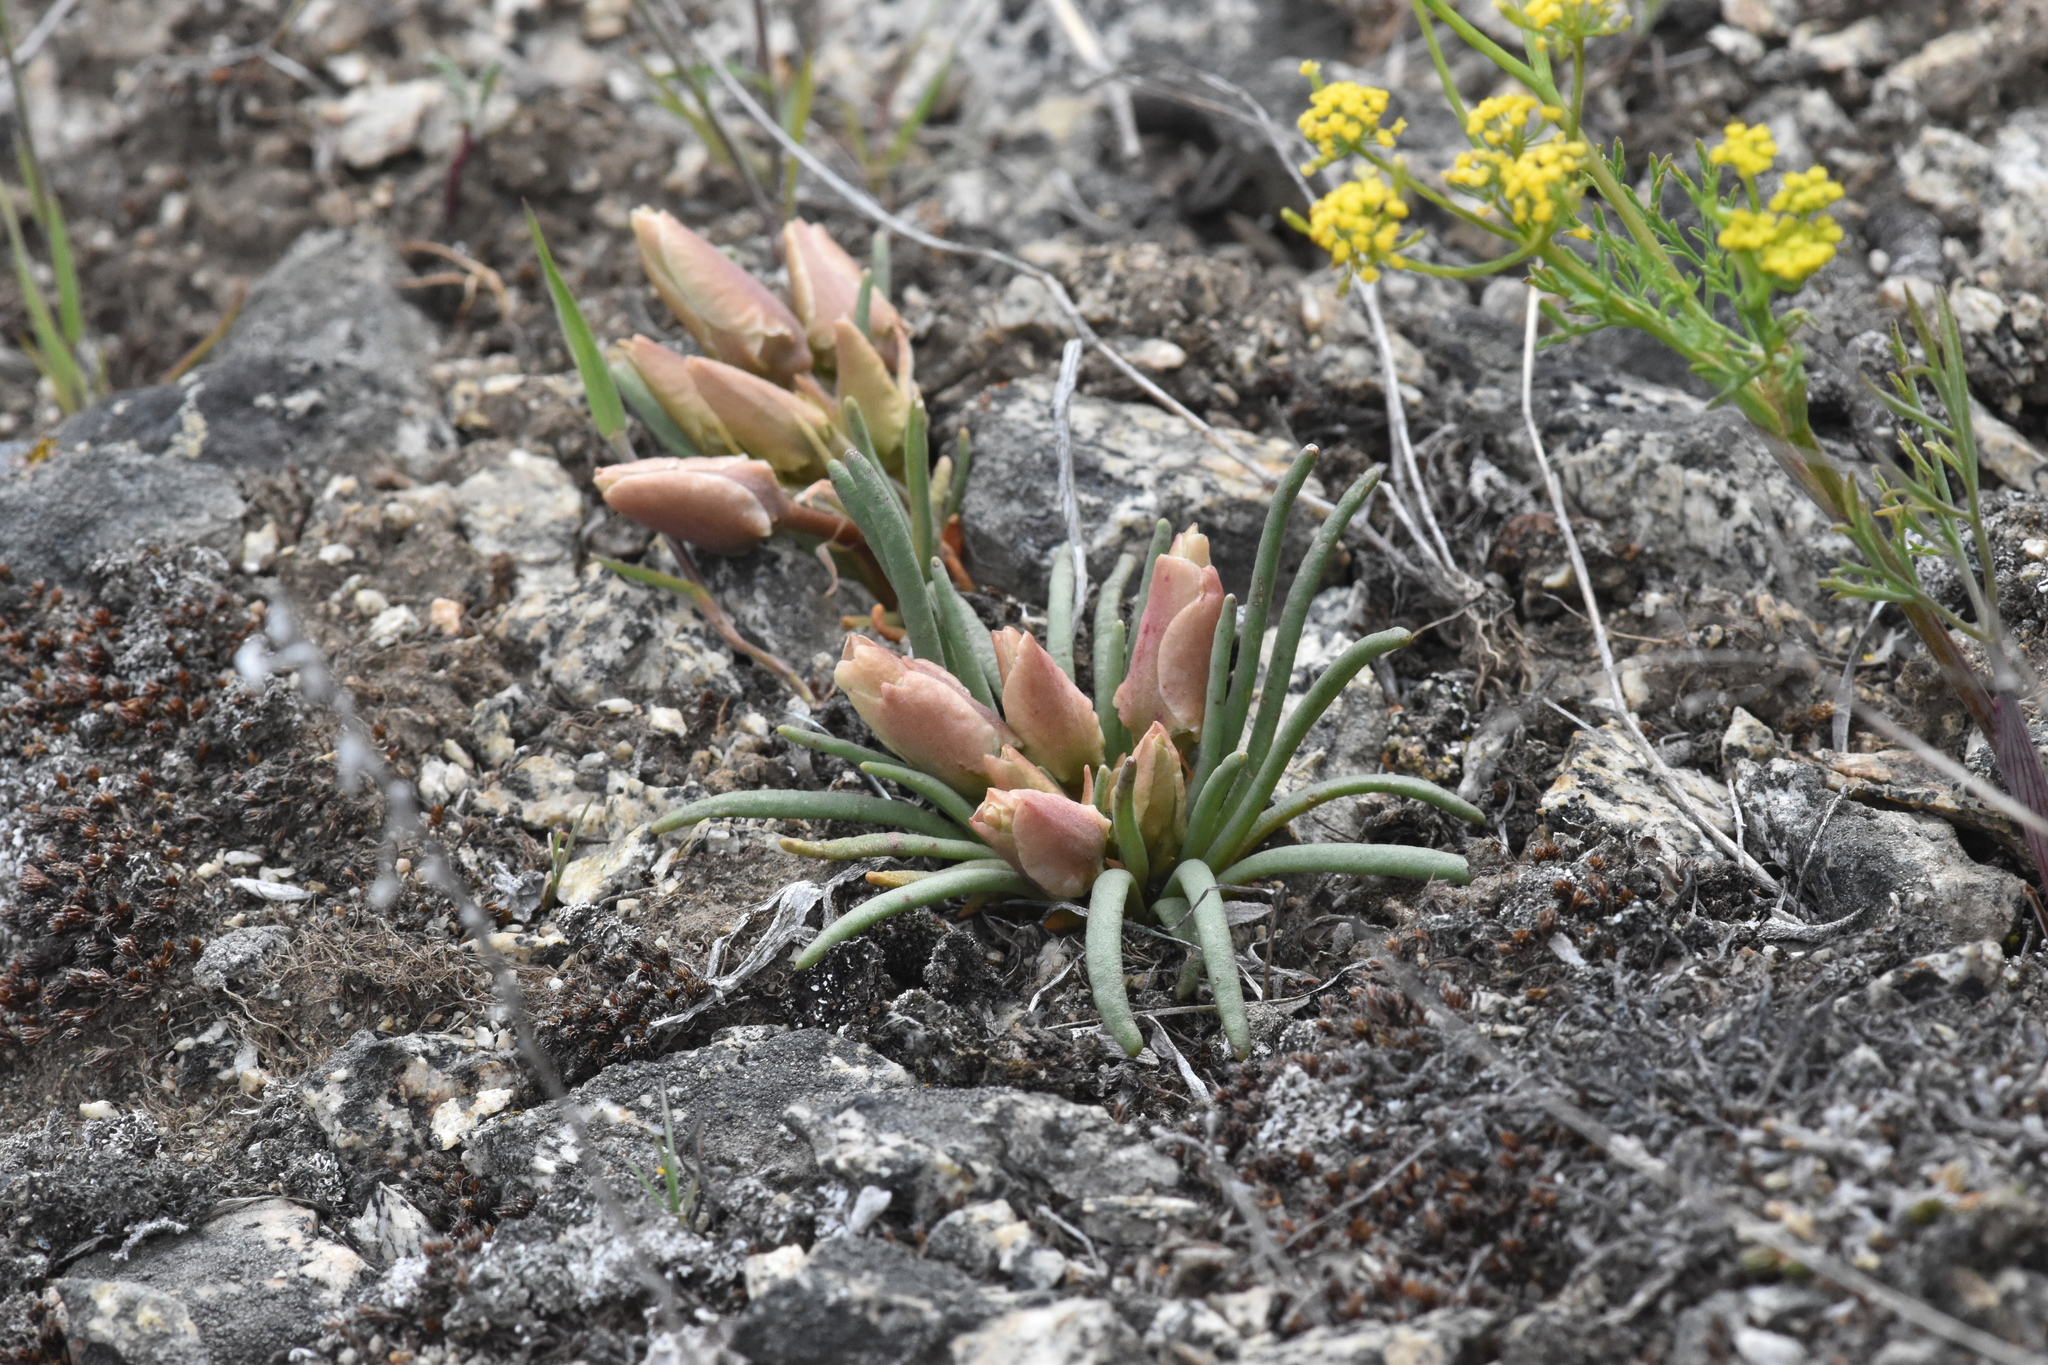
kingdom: Plantae
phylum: Tracheophyta
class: Magnoliopsida
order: Caryophyllales
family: Montiaceae
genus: Lewisia
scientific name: Lewisia rediviva
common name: Bitter-root
